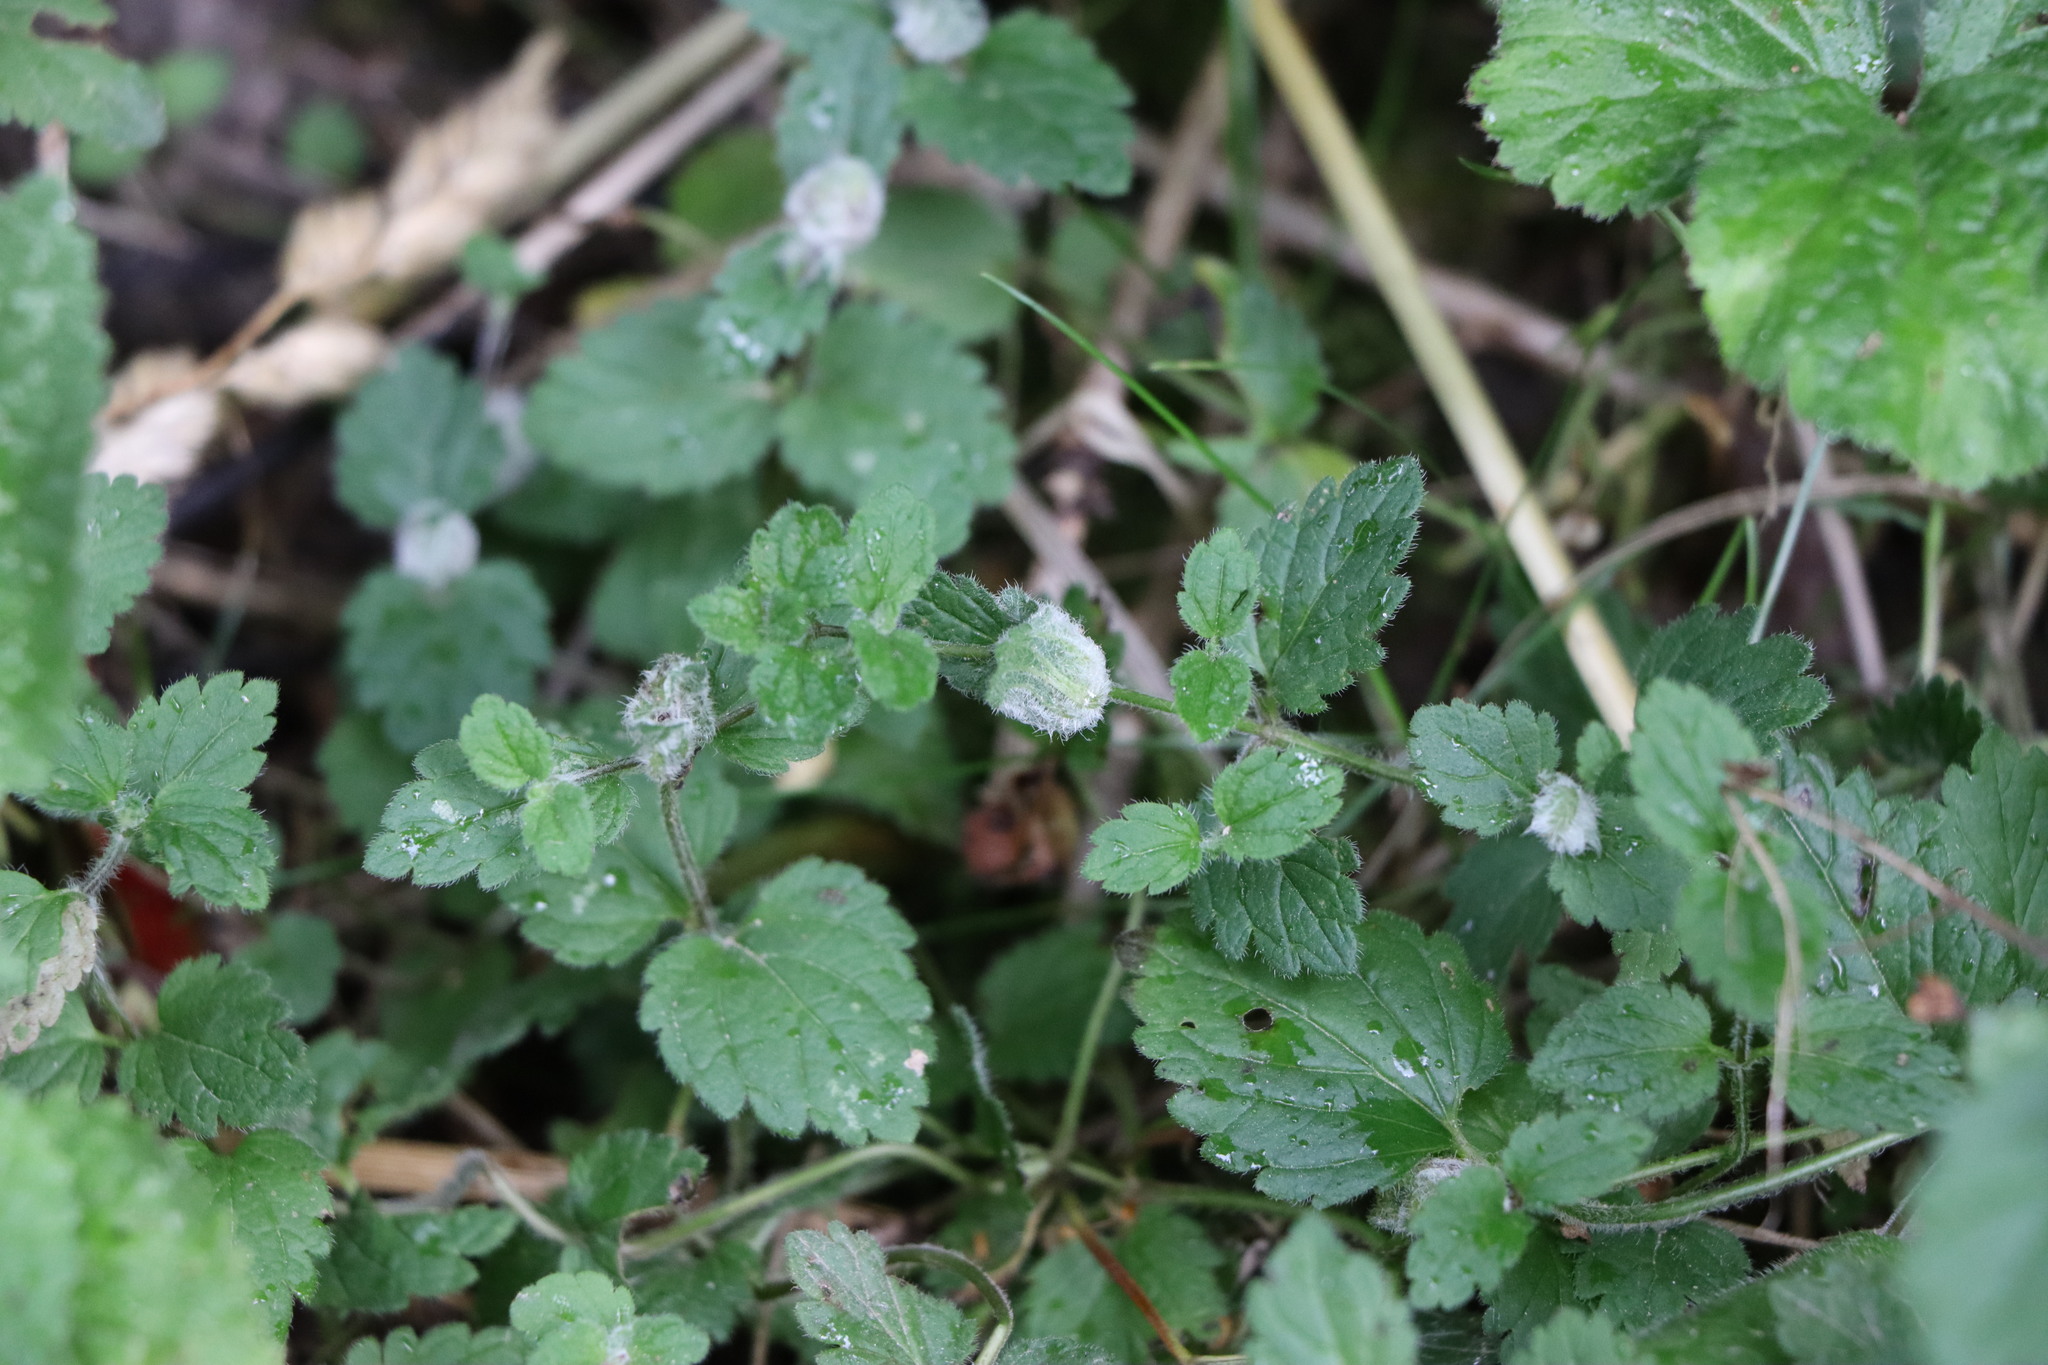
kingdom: Plantae
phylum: Tracheophyta
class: Magnoliopsida
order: Lamiales
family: Plantaginaceae
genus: Veronica
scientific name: Veronica chamaedrys
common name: Germander speedwell
